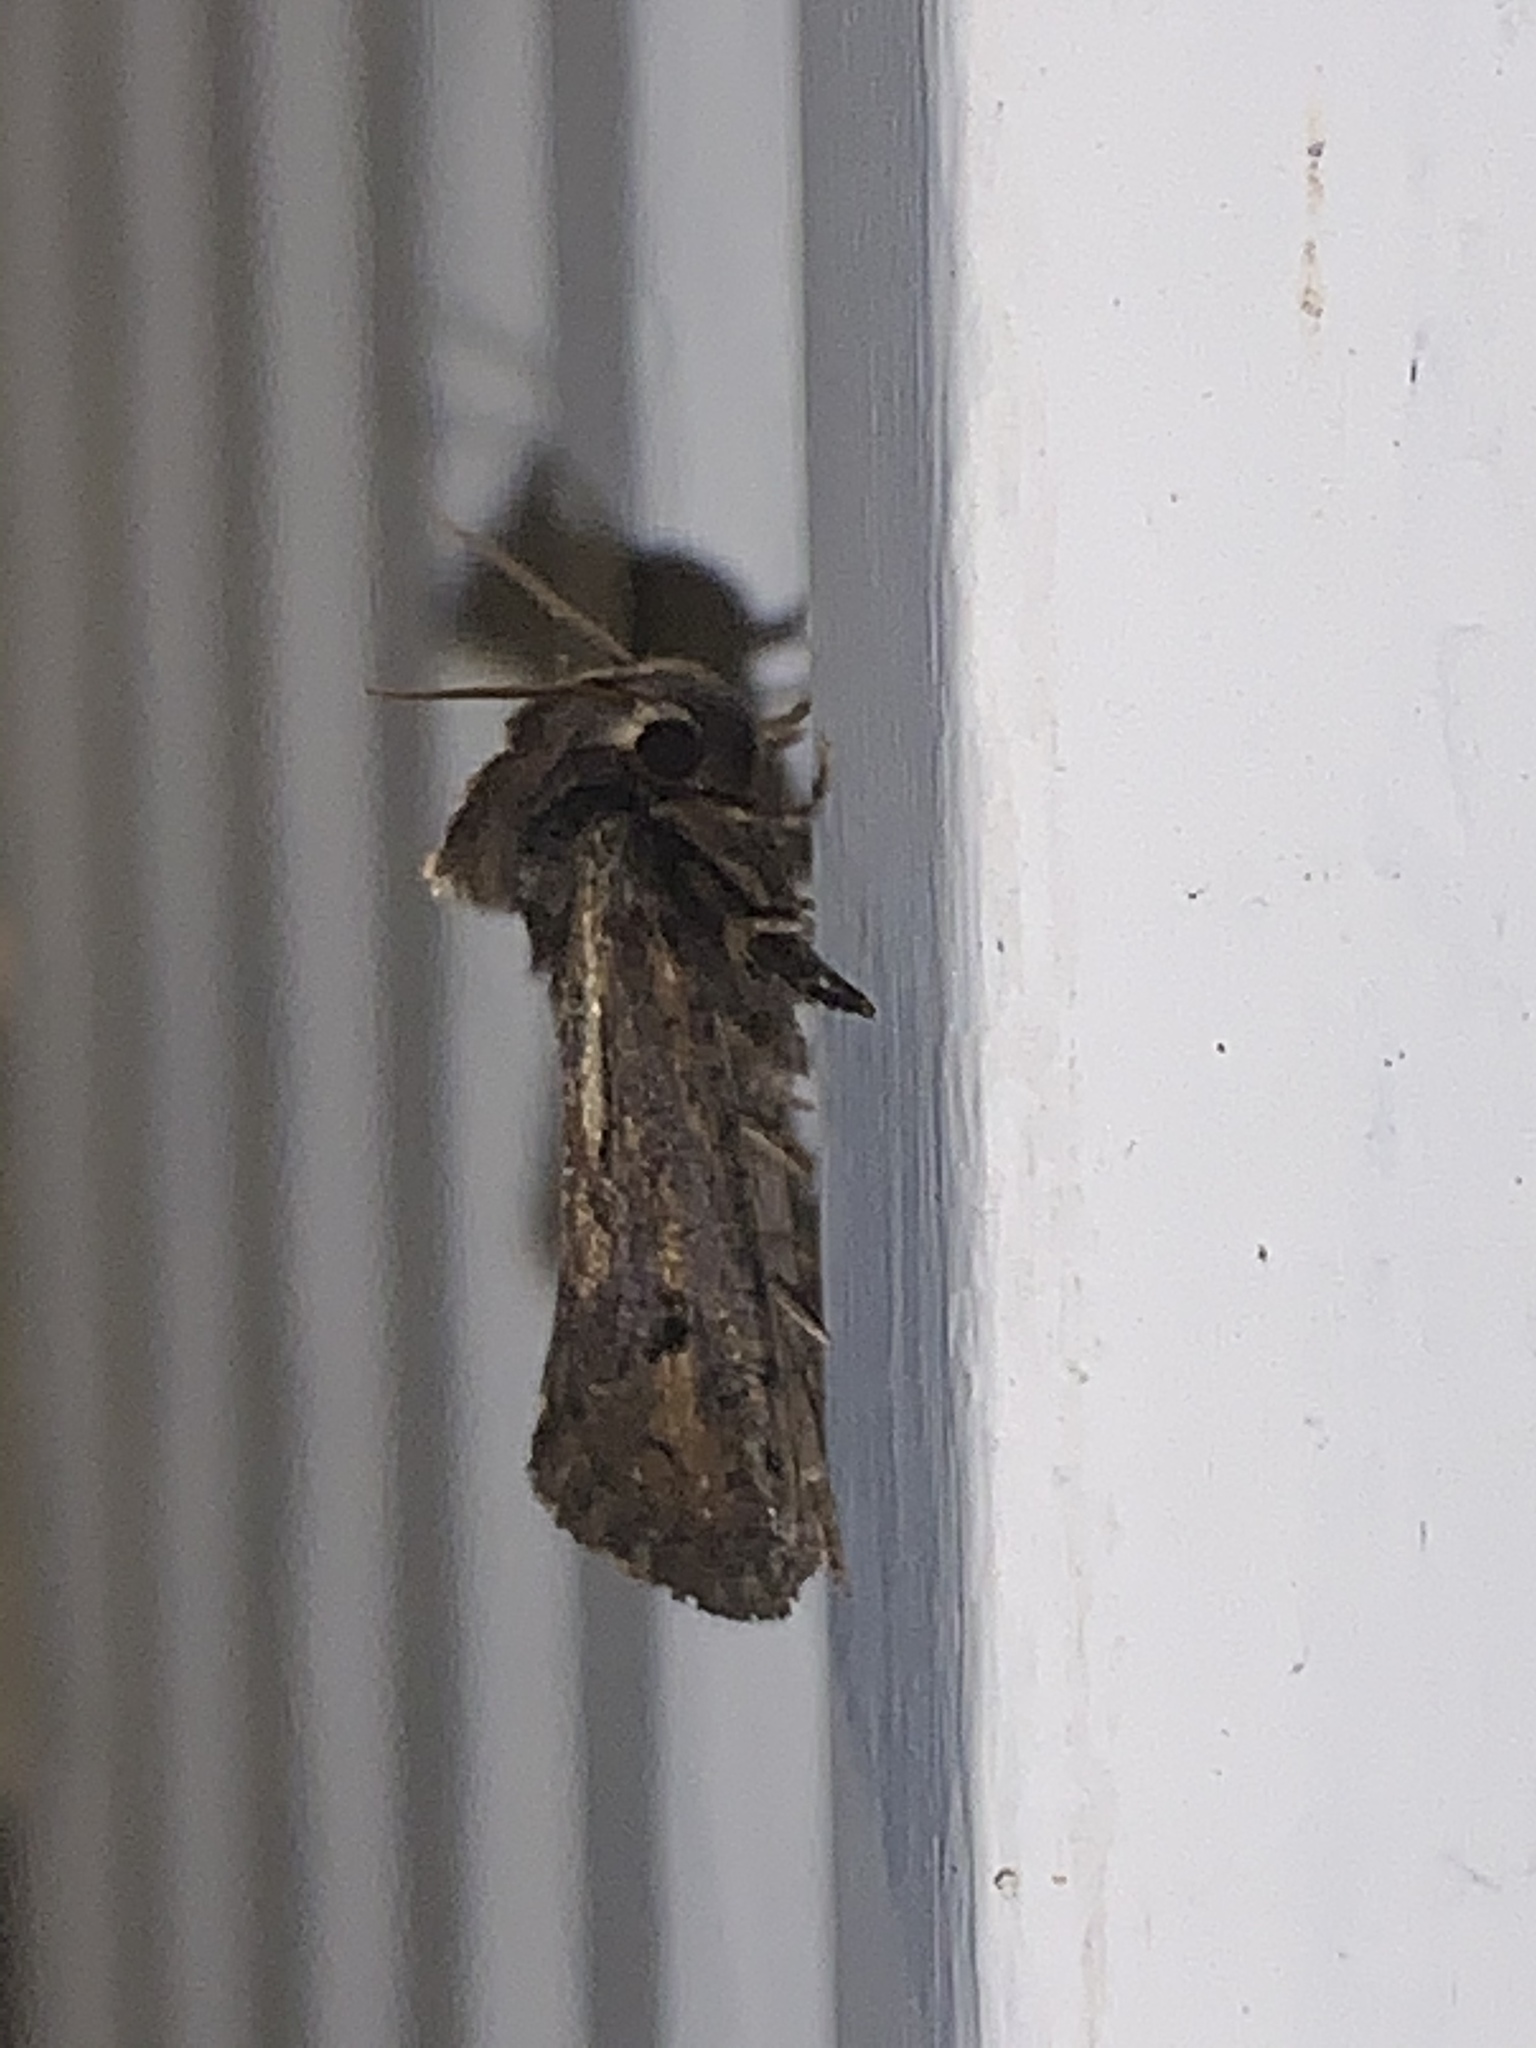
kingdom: Animalia
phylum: Arthropoda
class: Insecta
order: Lepidoptera
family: Tineidae
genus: Acrolophus
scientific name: Acrolophus popeanella
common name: Clemens' grass tubeworm moth
